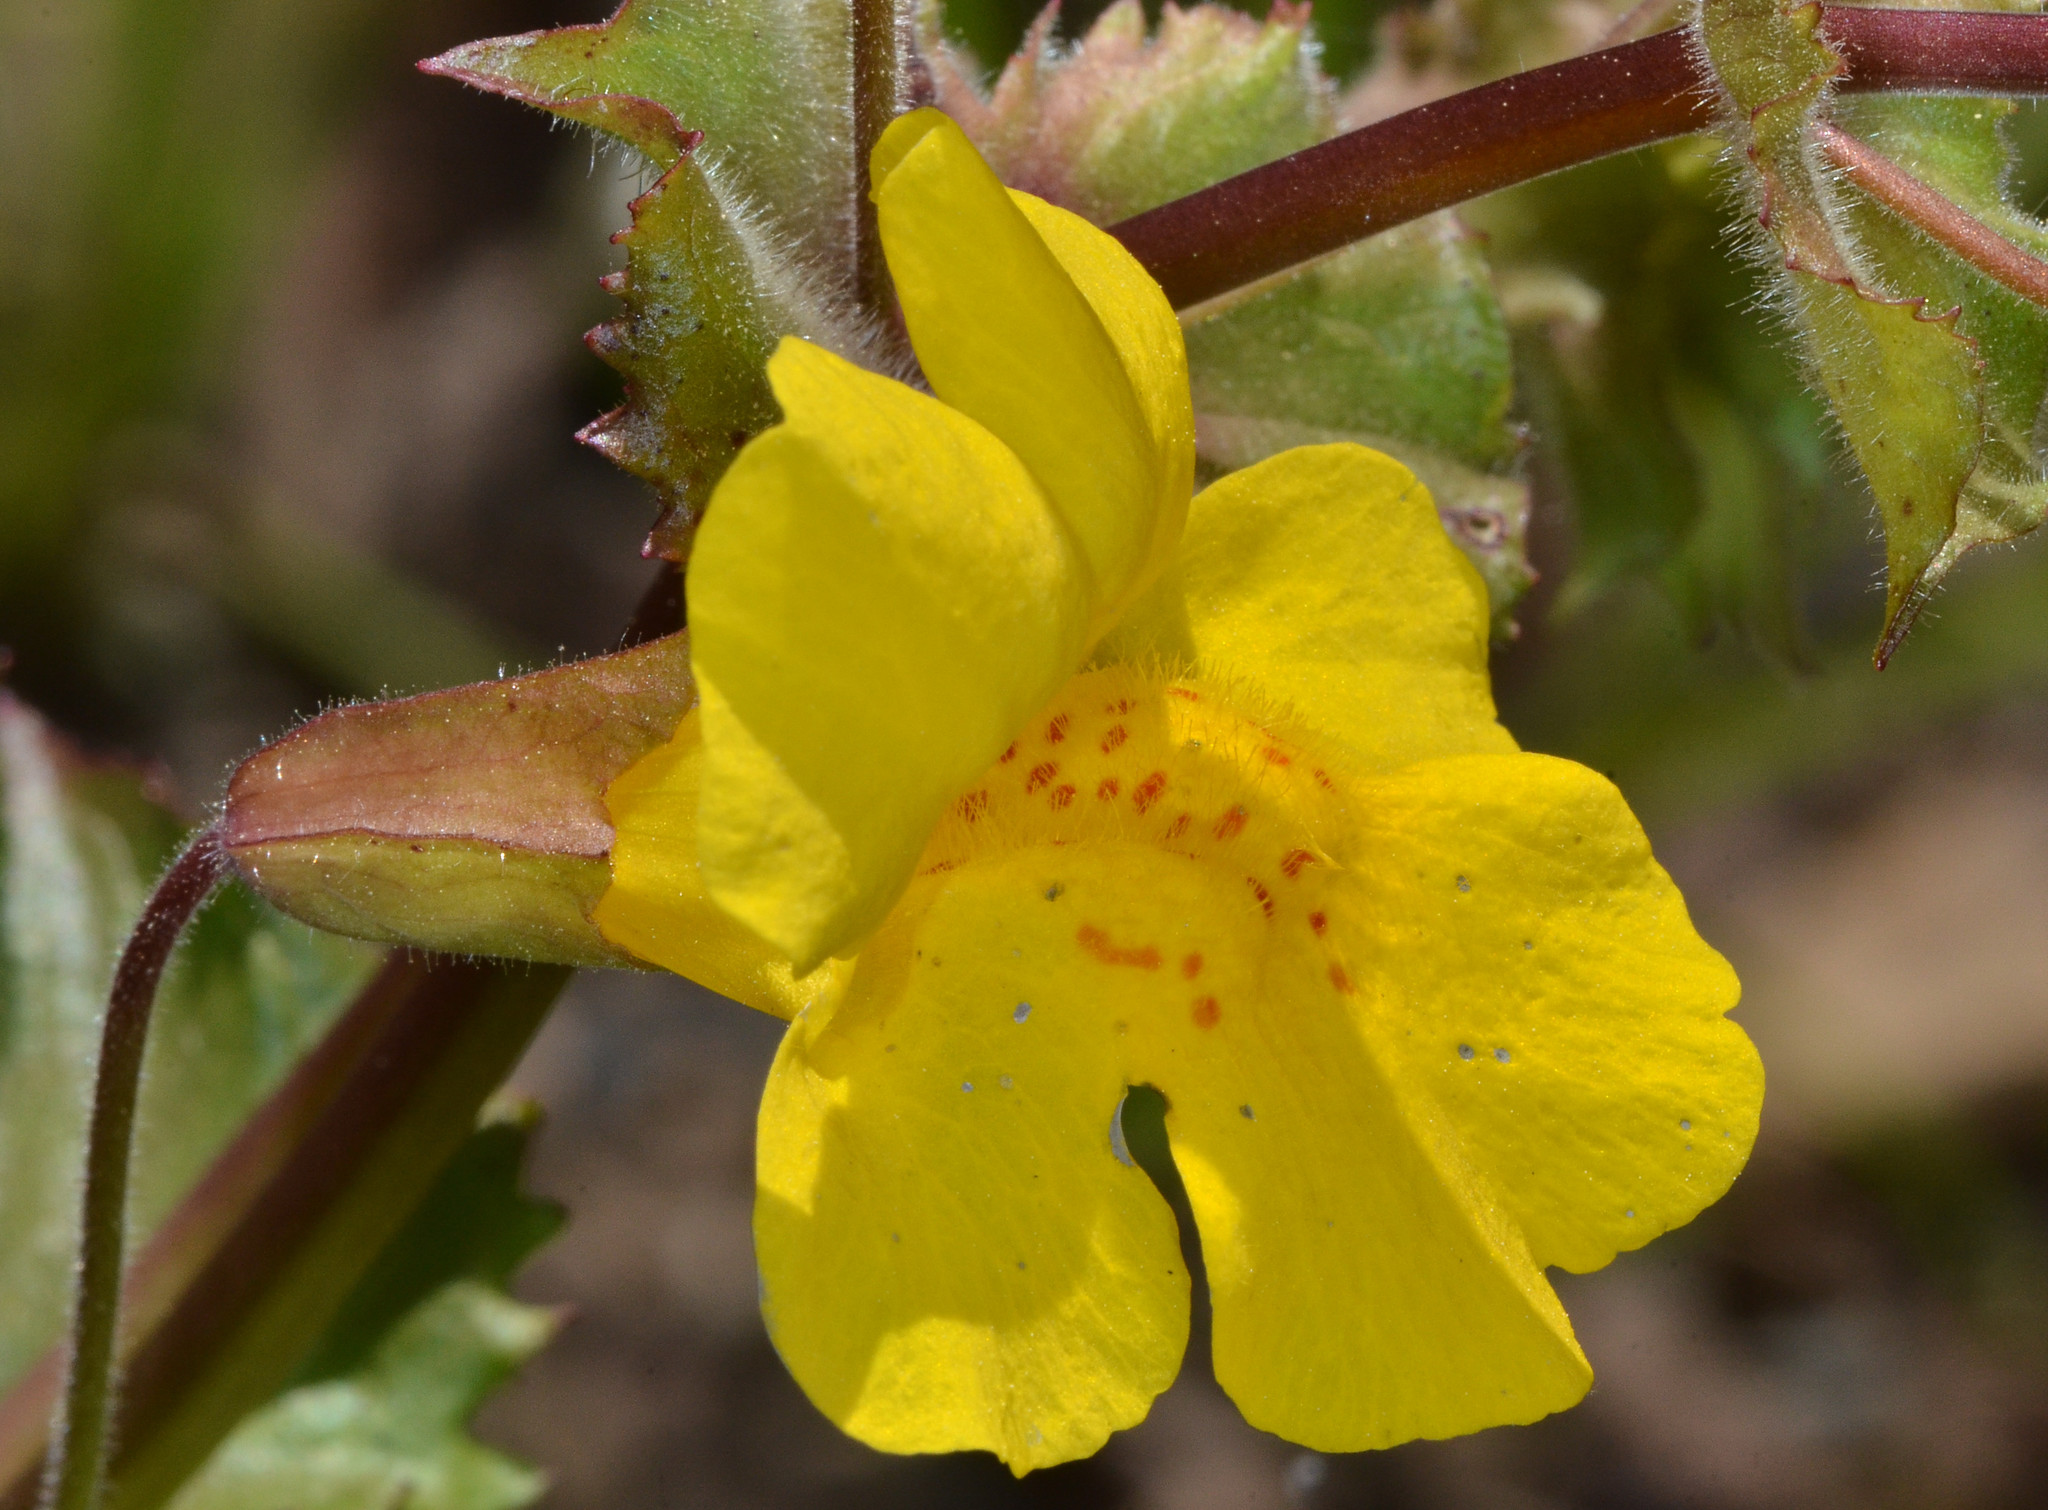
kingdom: Plantae
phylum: Tracheophyta
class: Magnoliopsida
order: Lamiales
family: Phrymaceae
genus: Erythranthe
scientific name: Erythranthe guttata
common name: Monkeyflower
